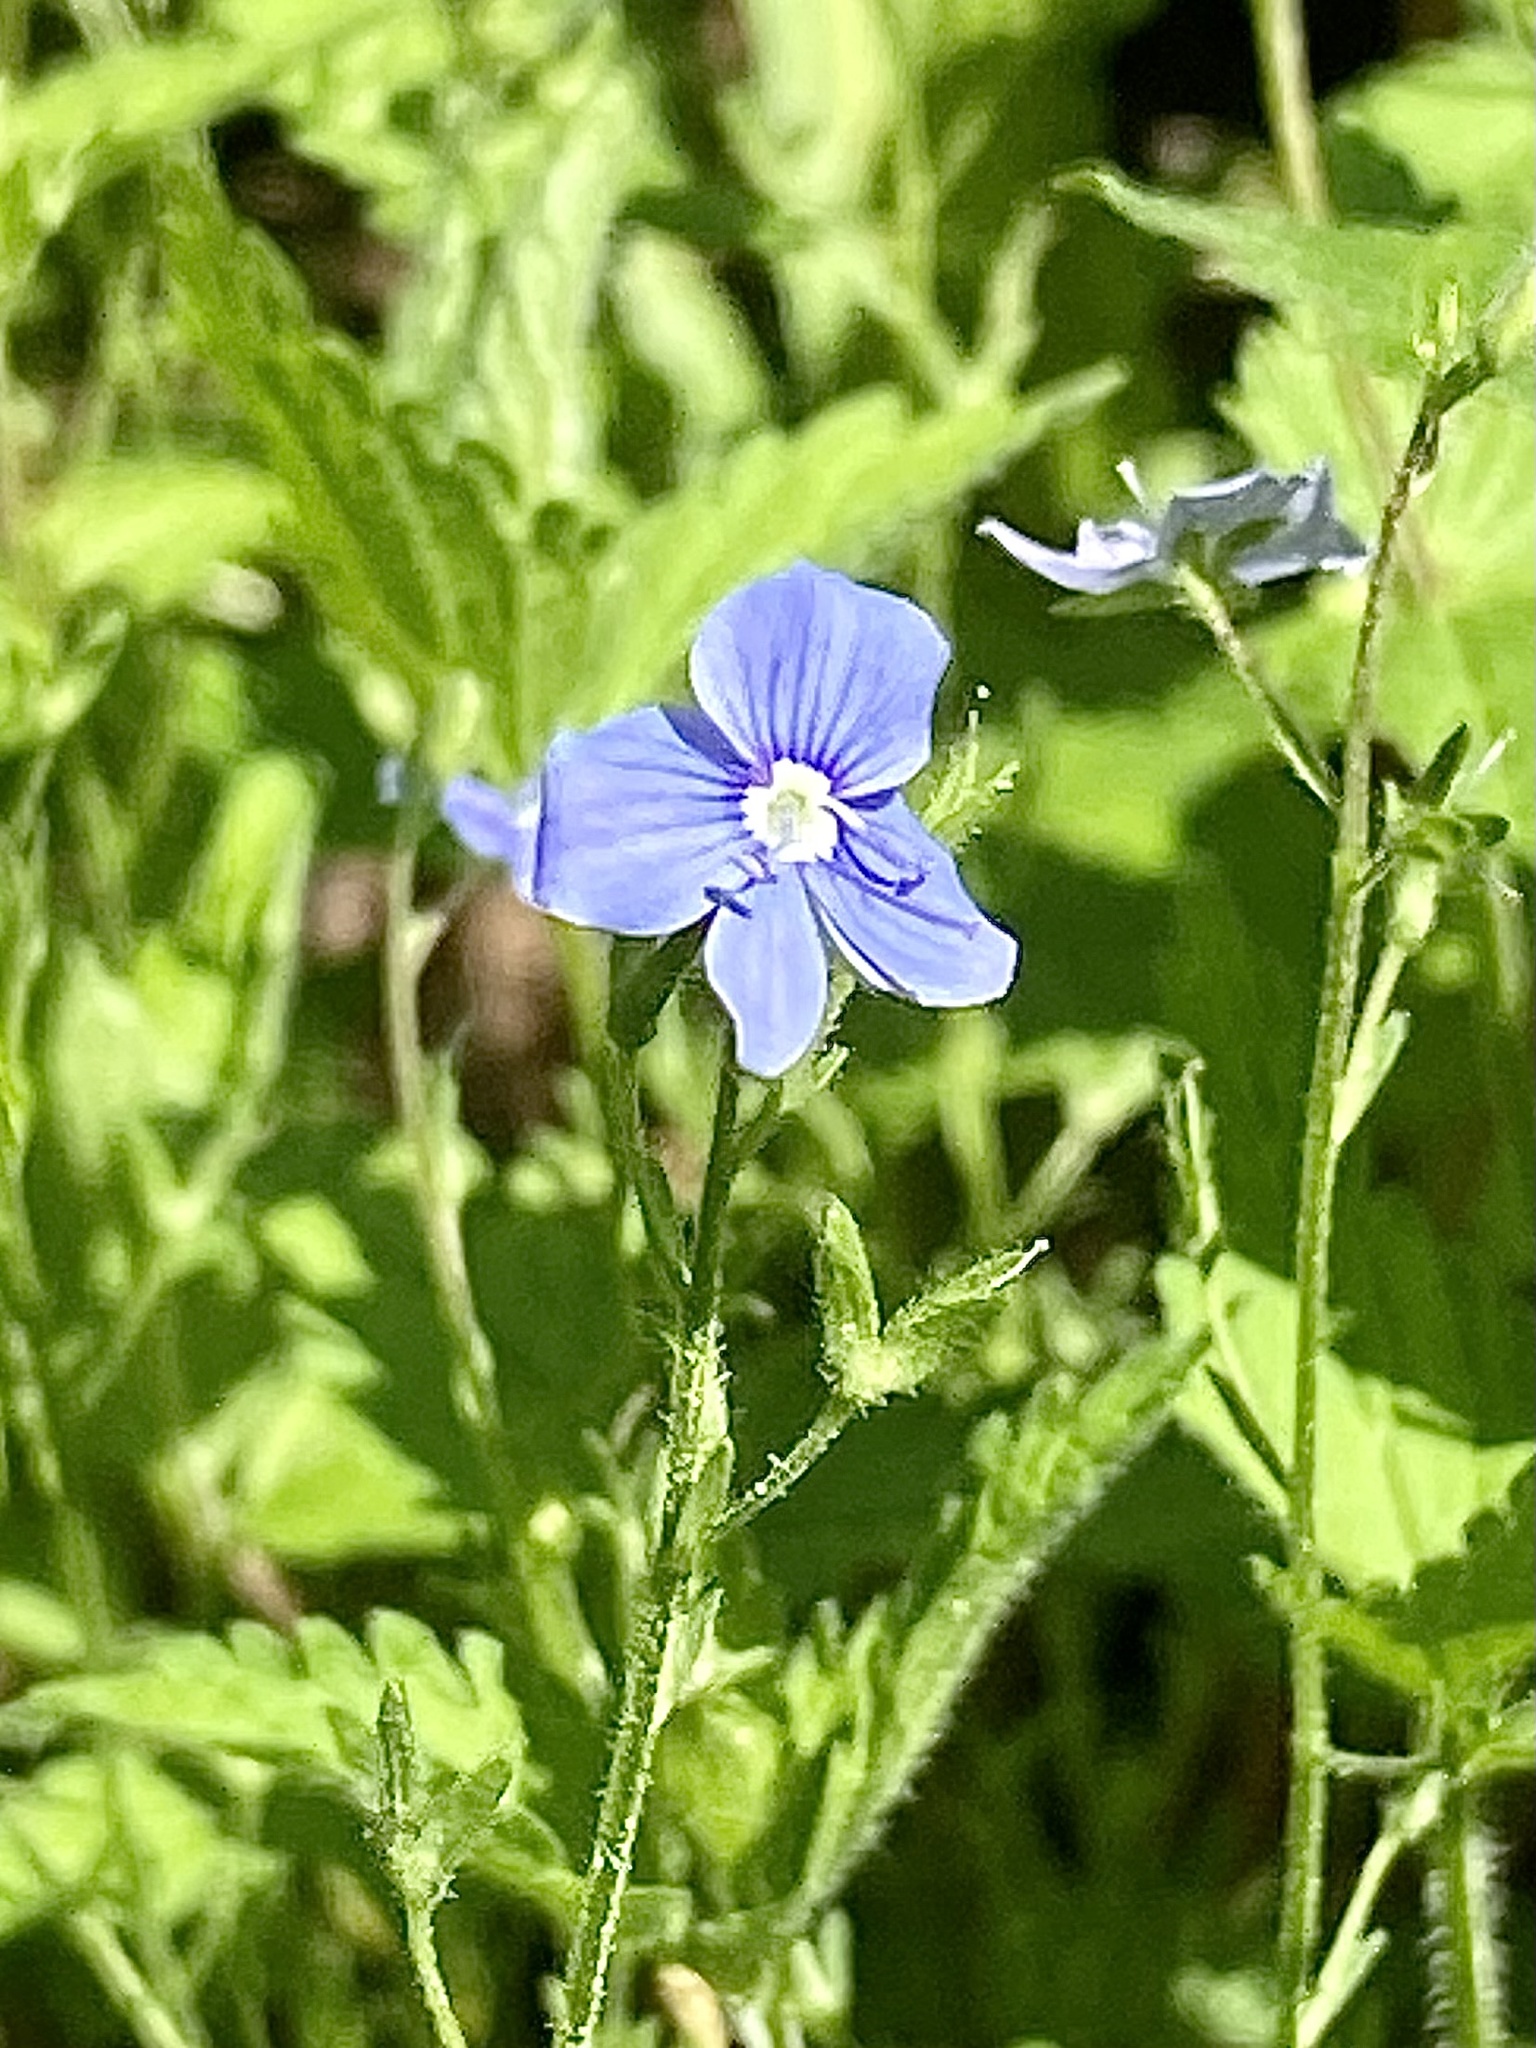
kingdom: Plantae
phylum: Tracheophyta
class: Magnoliopsida
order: Lamiales
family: Plantaginaceae
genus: Veronica
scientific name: Veronica chamaedrys
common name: Germander speedwell
